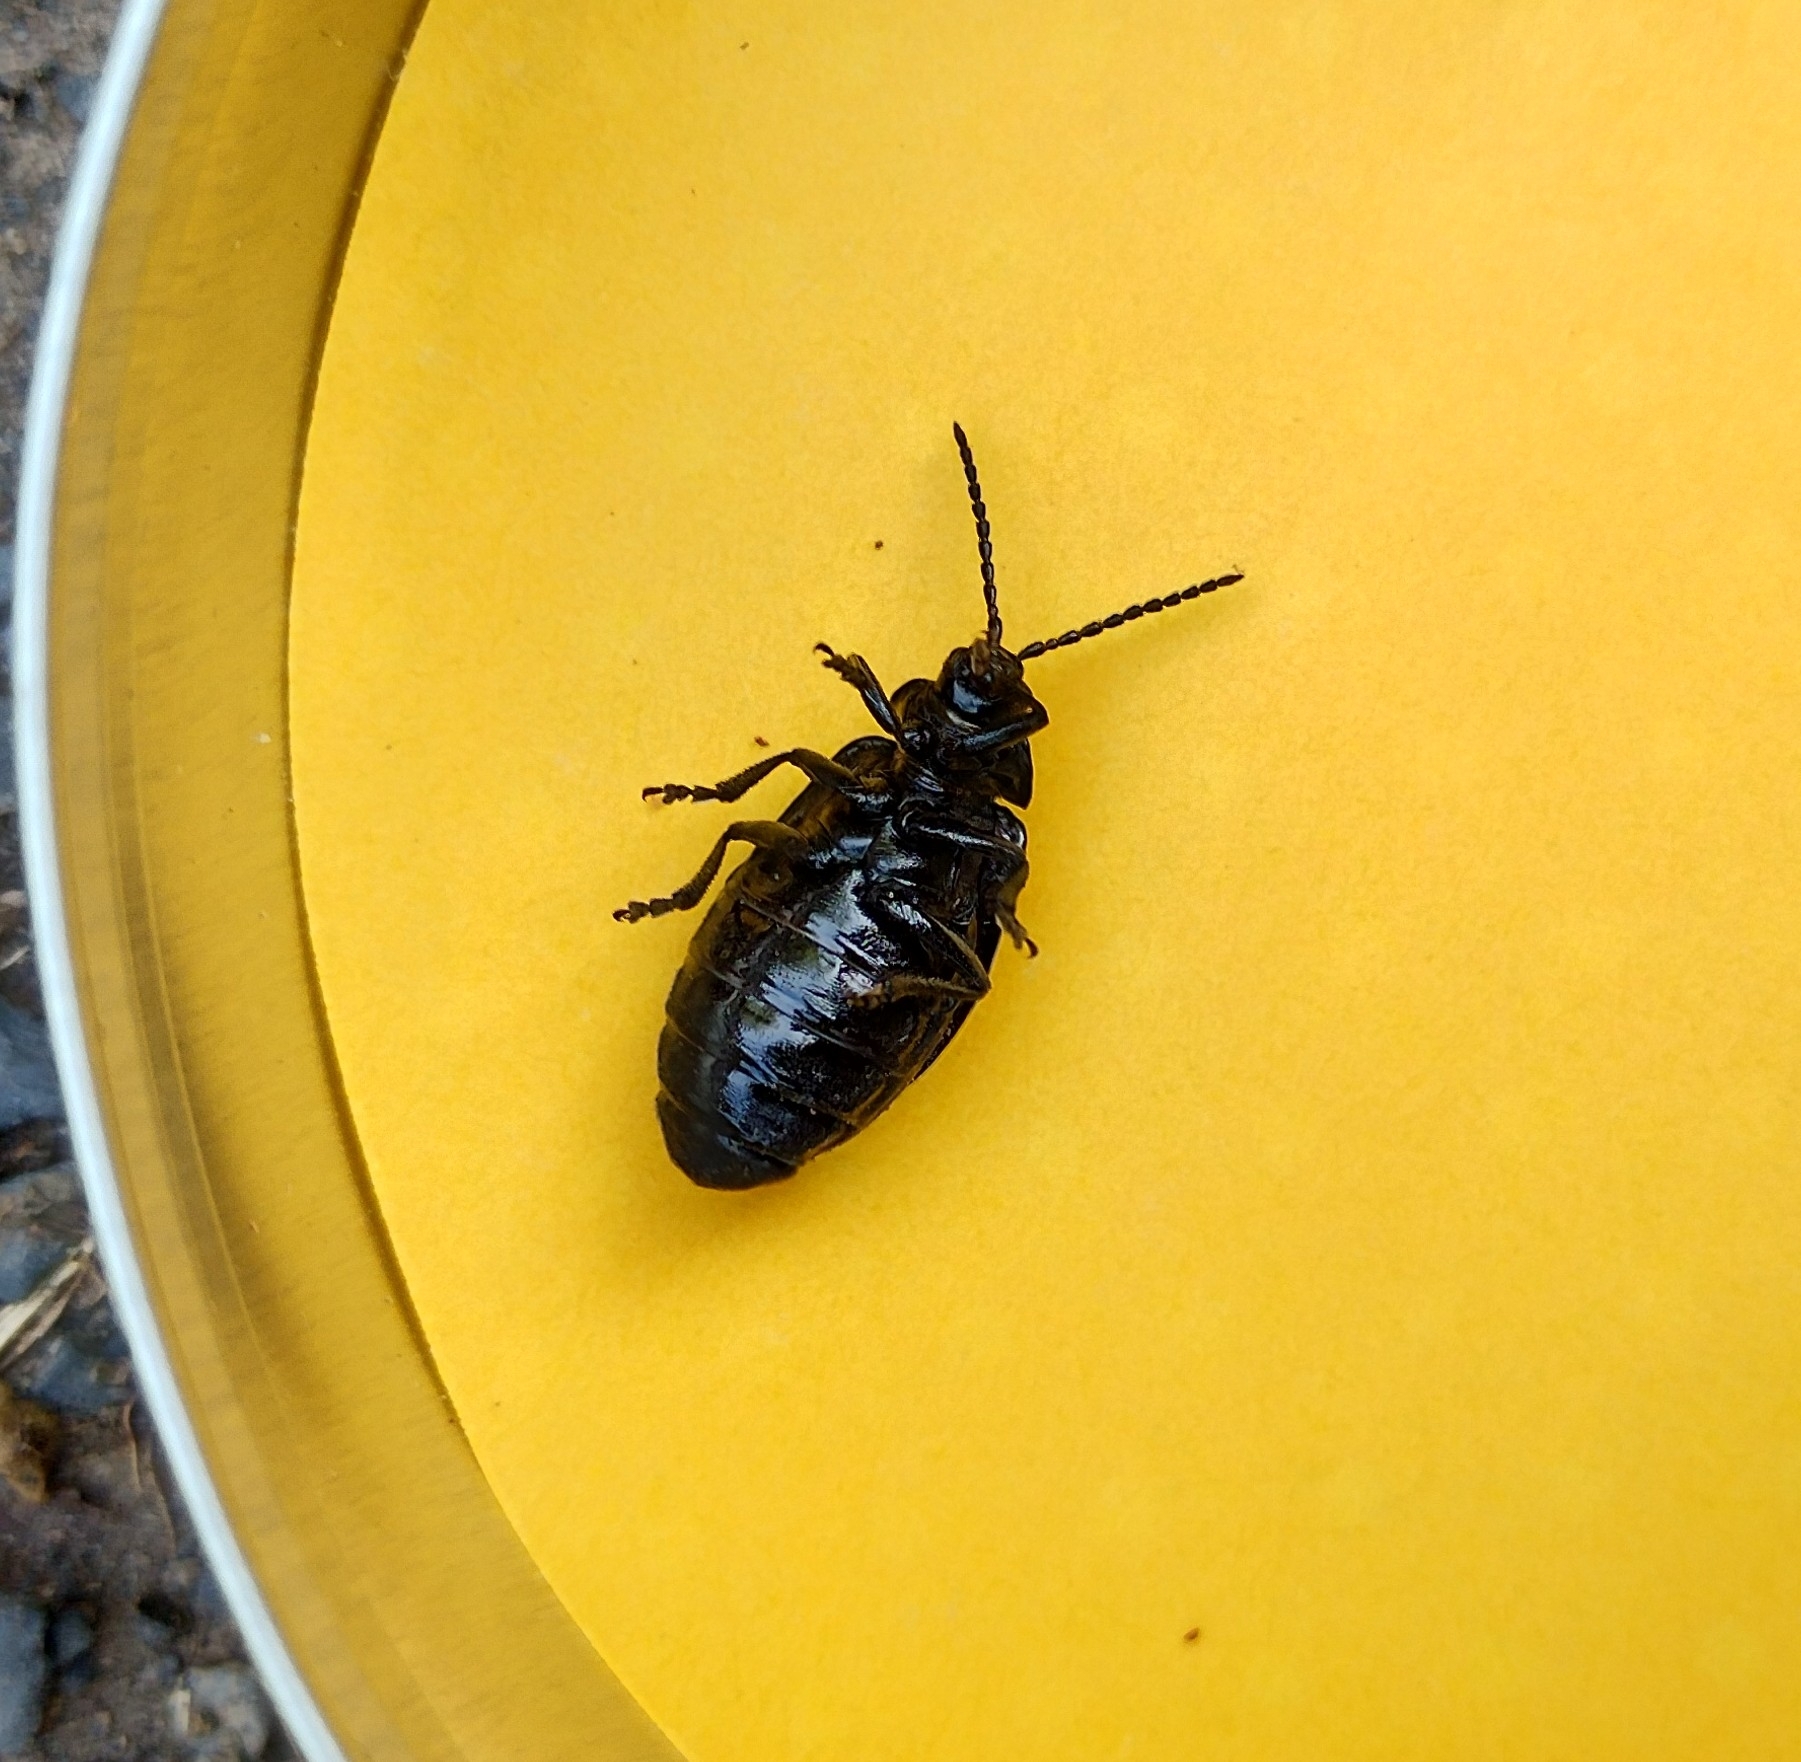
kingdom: Animalia
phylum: Arthropoda
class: Insecta
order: Coleoptera
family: Chrysomelidae
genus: Galeruca
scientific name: Galeruca tanaceti
